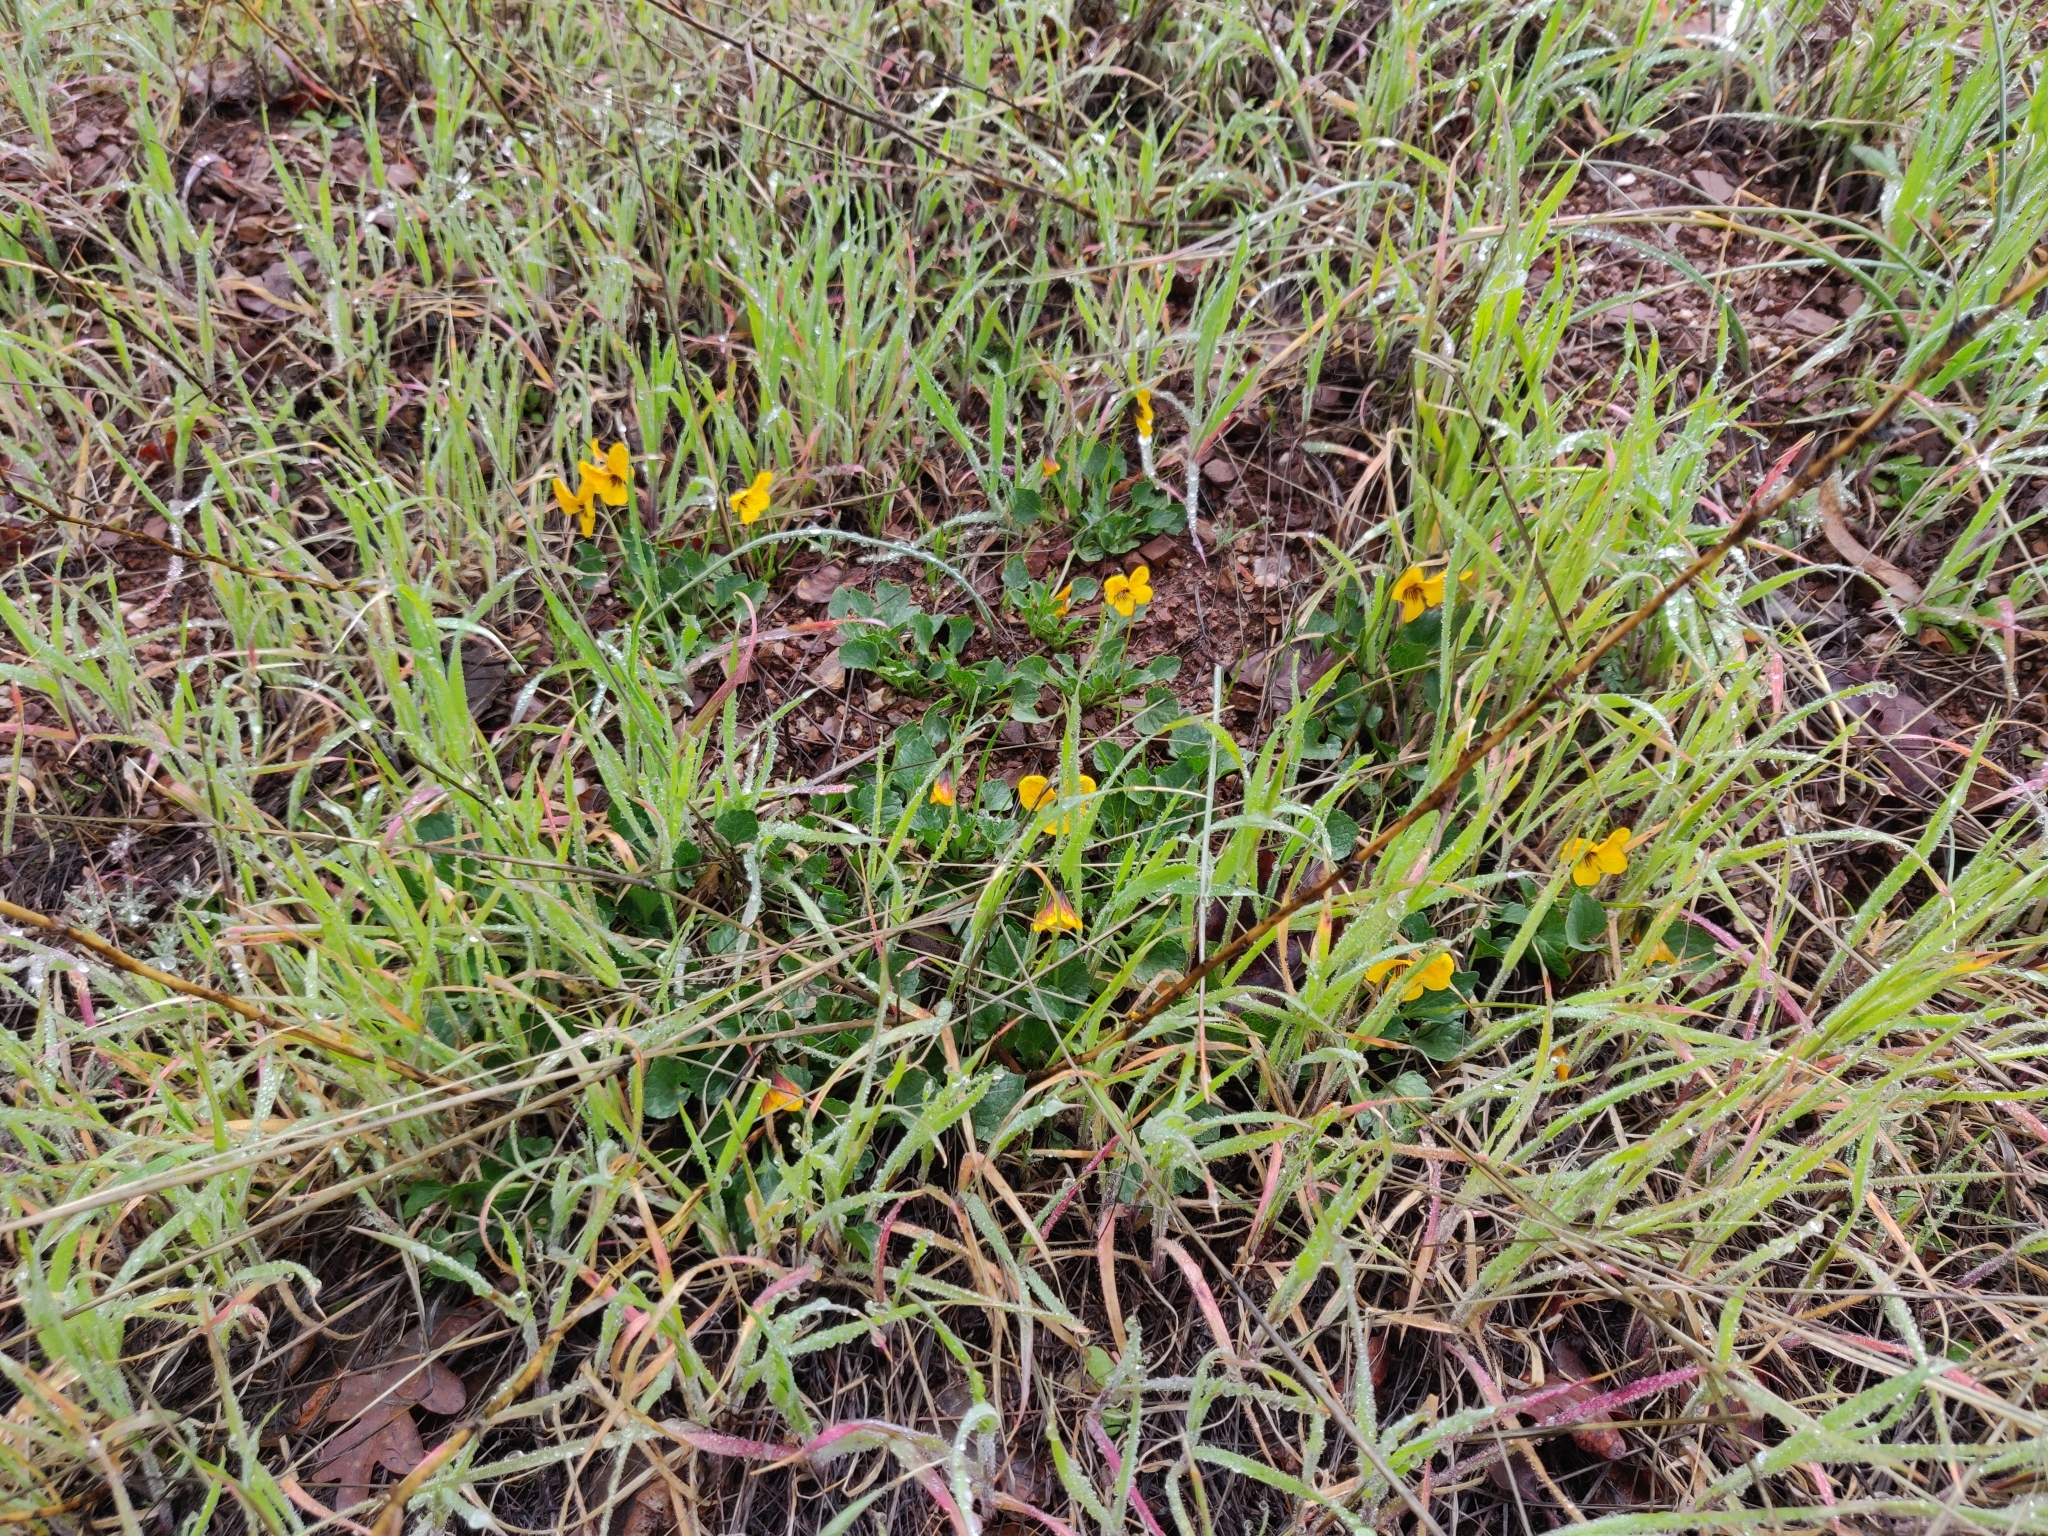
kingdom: Plantae
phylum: Tracheophyta
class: Magnoliopsida
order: Malpighiales
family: Violaceae
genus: Viola
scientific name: Viola pedunculata
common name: California golden violet
